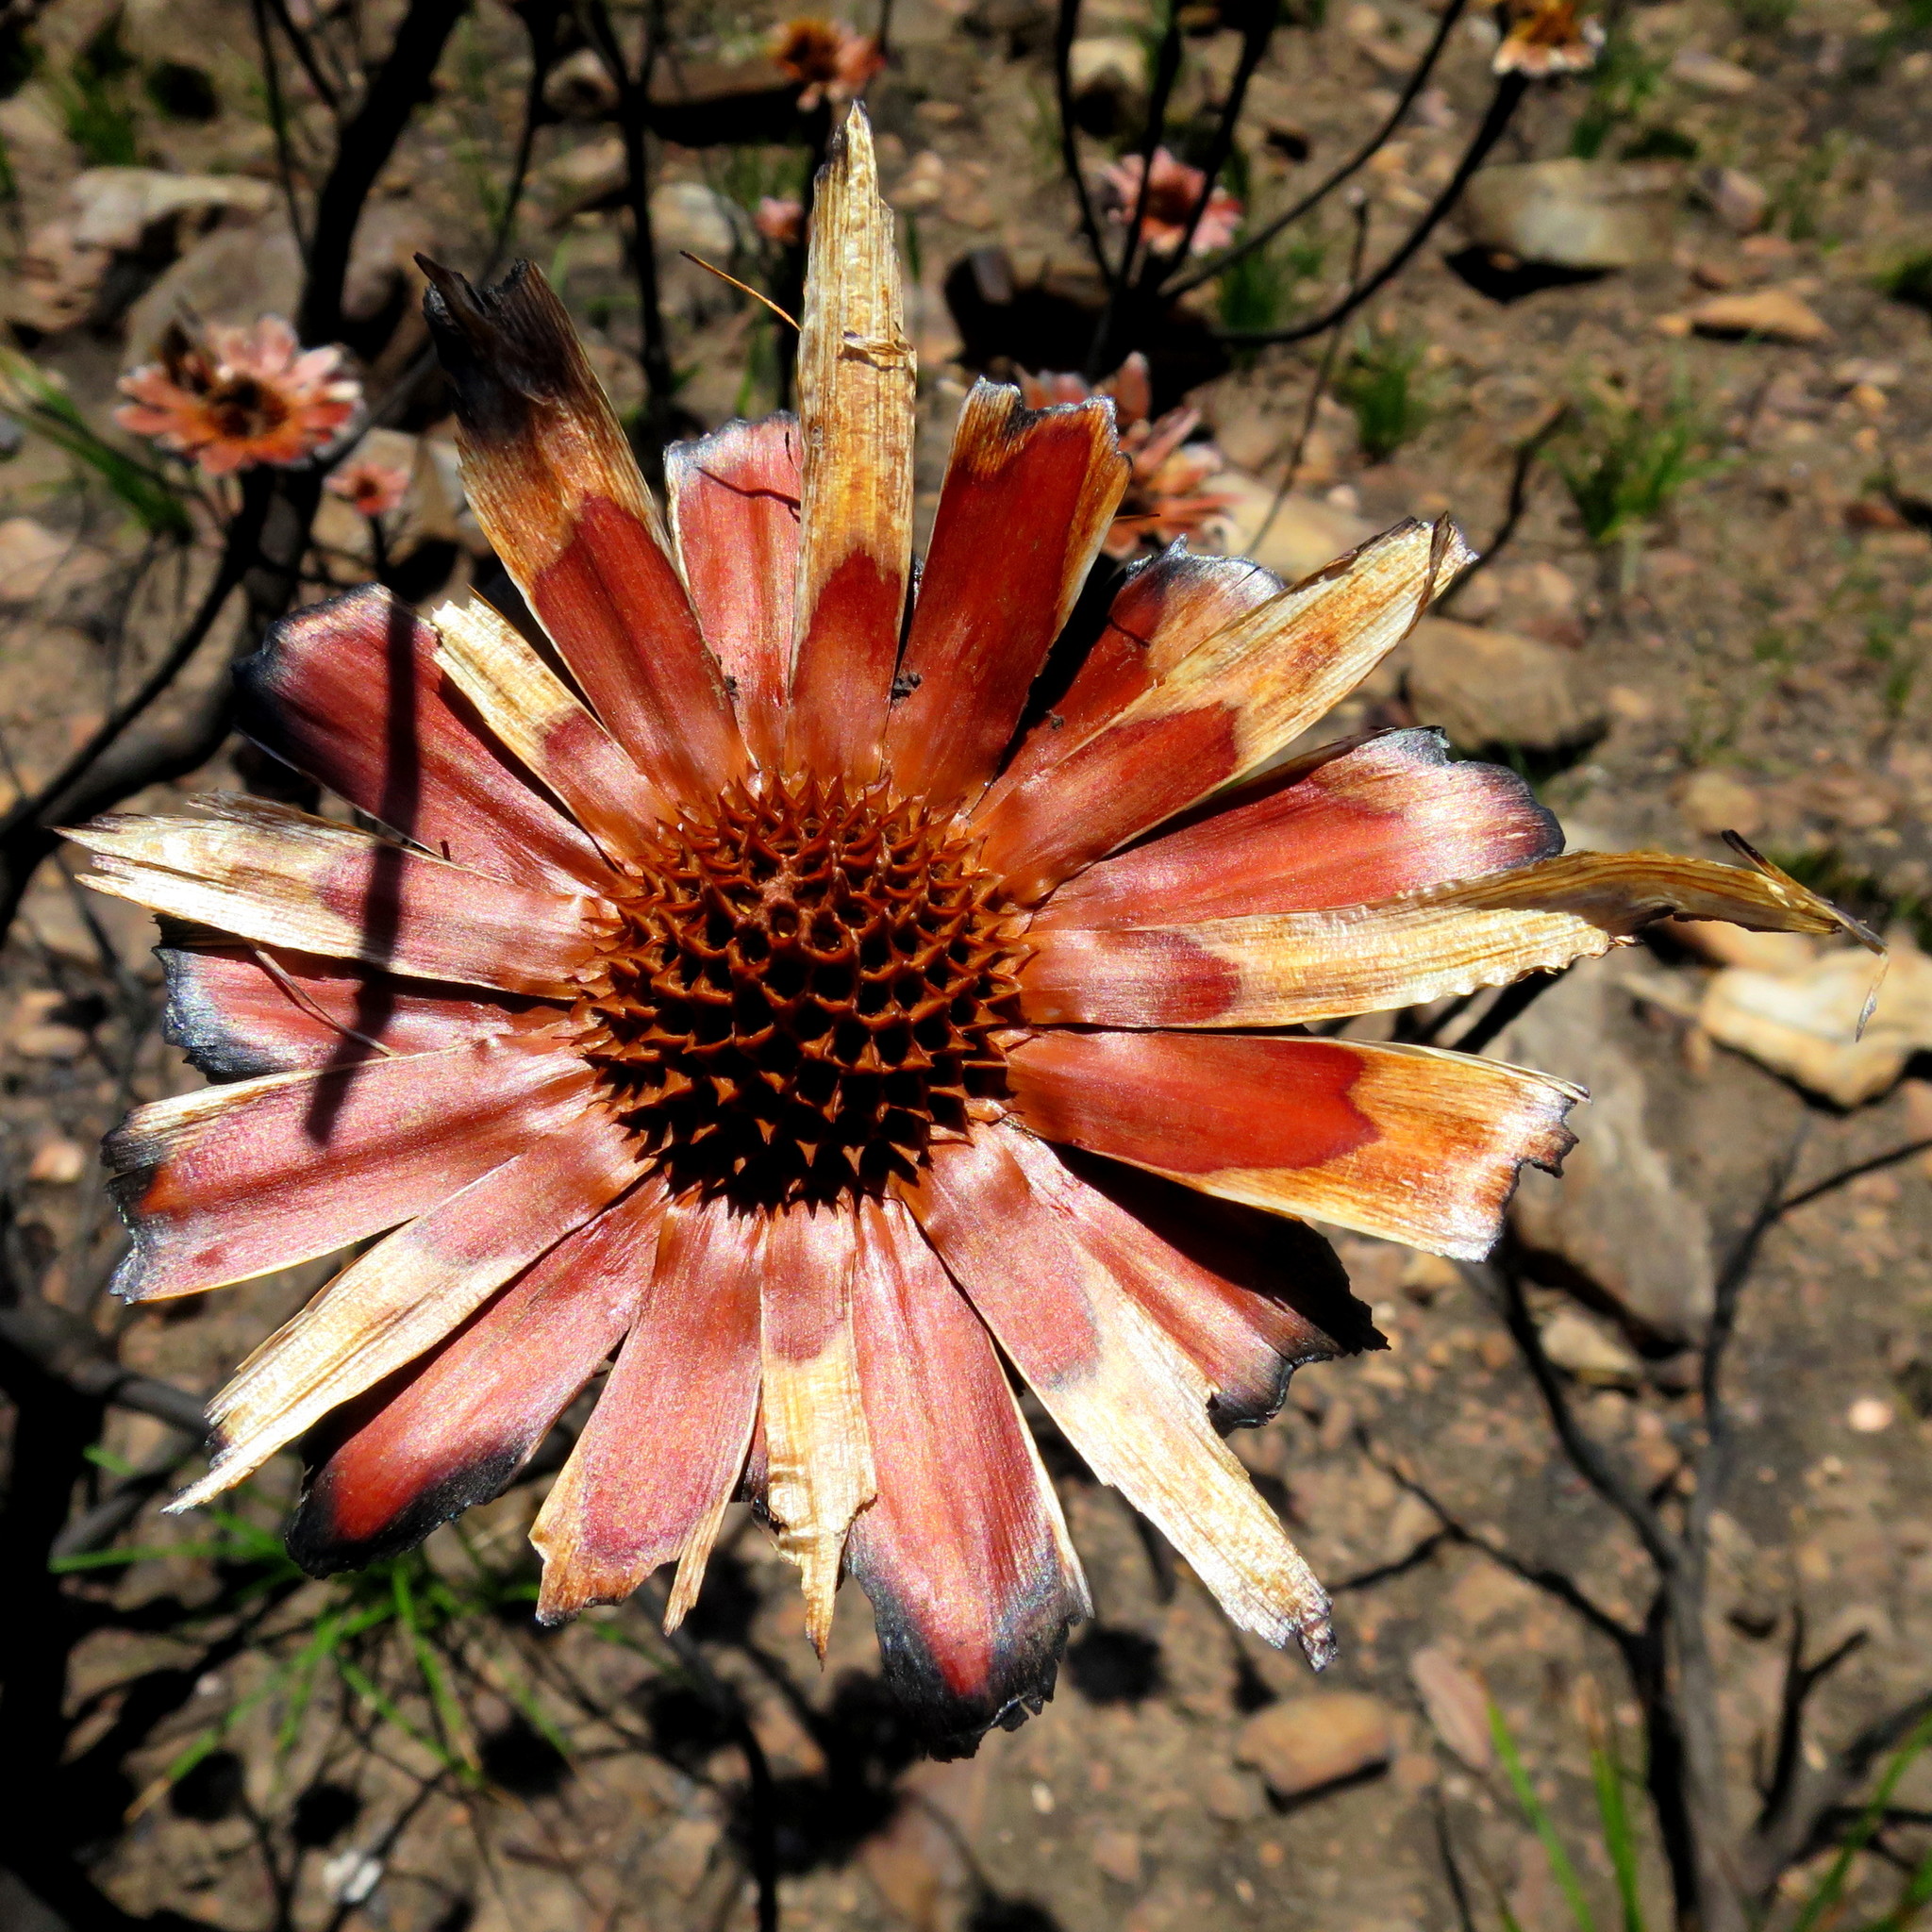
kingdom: Plantae
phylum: Tracheophyta
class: Magnoliopsida
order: Proteales
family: Proteaceae
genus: Protea
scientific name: Protea repens
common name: Sugarbush
